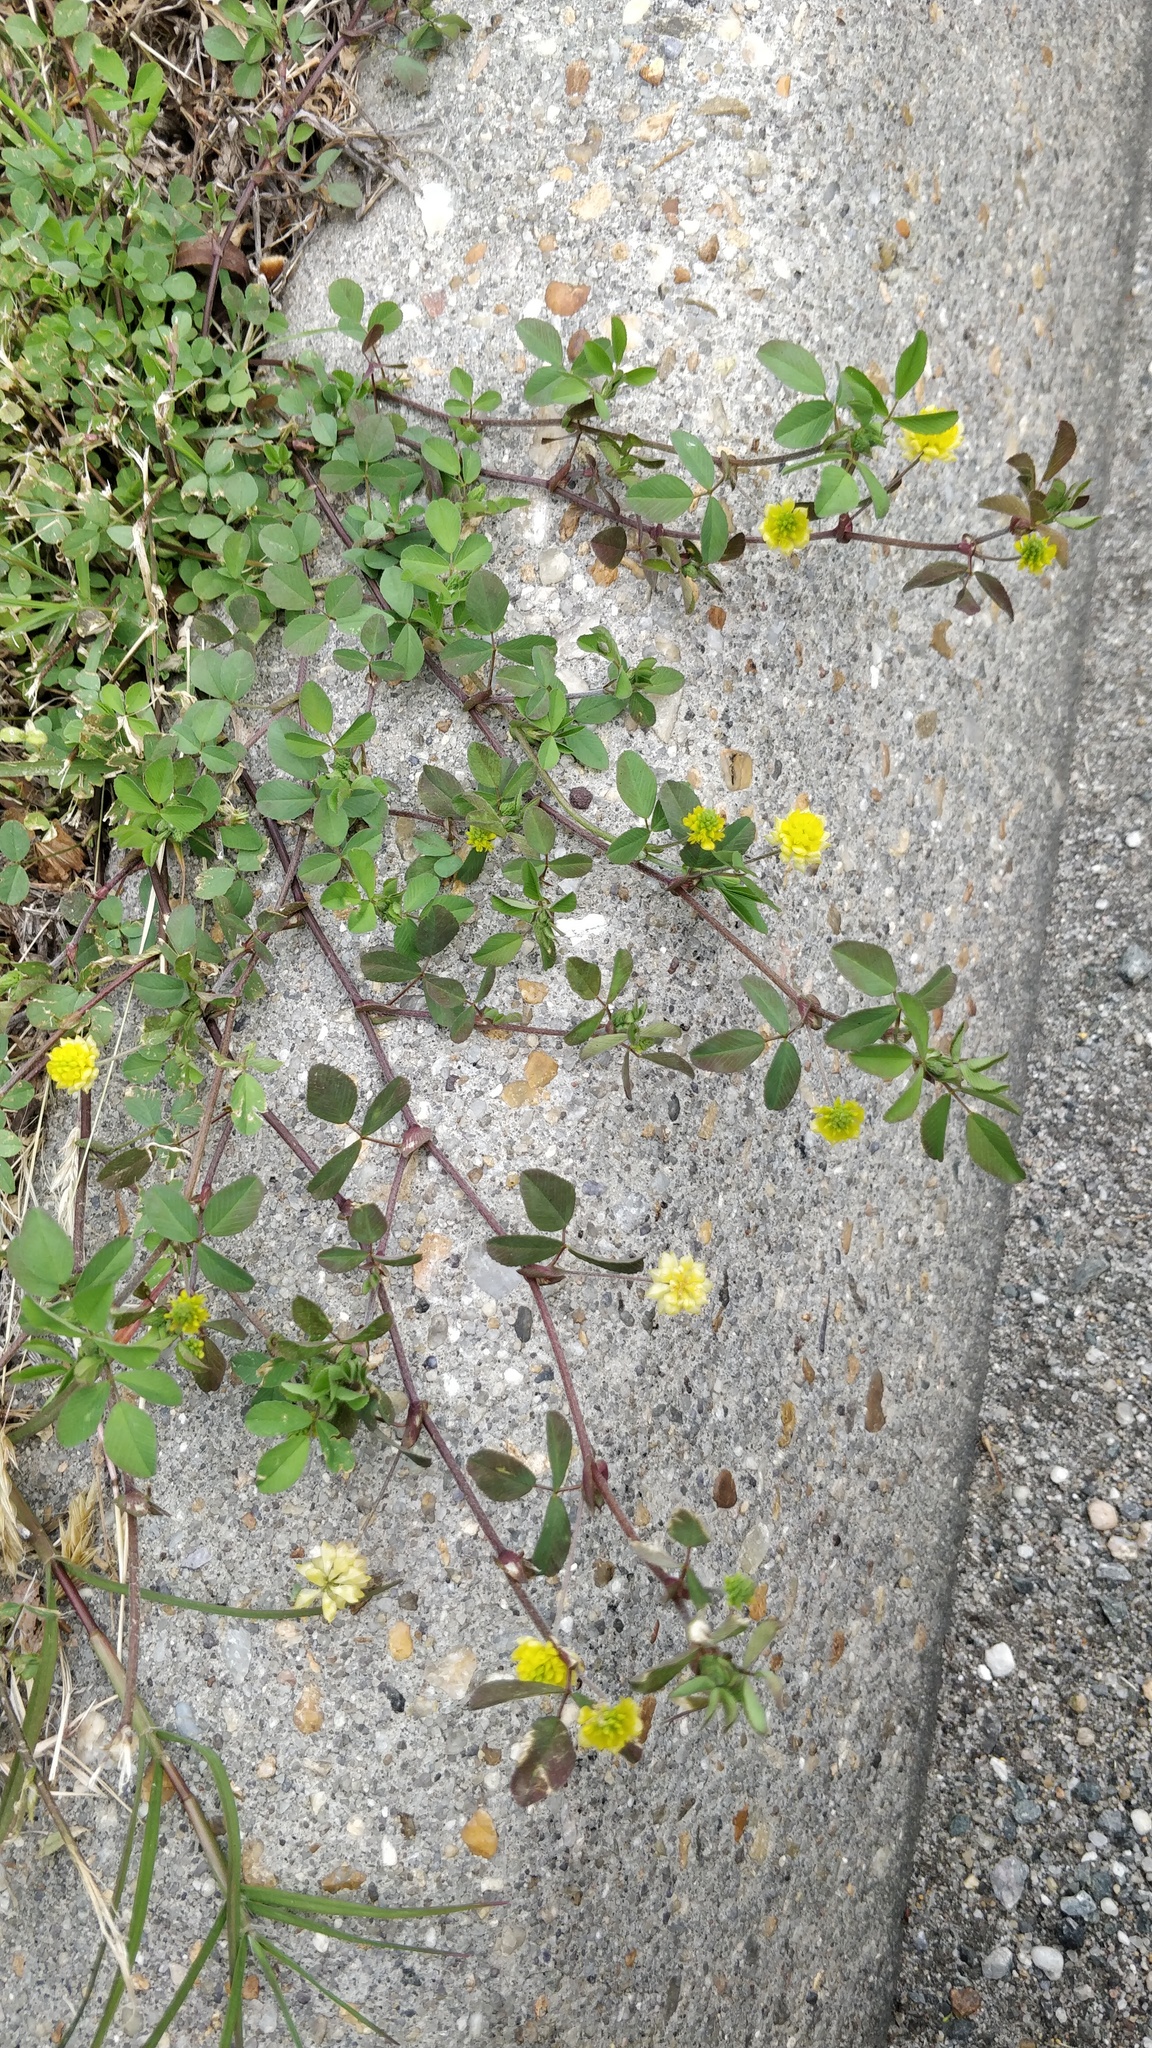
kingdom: Plantae
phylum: Tracheophyta
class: Magnoliopsida
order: Fabales
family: Fabaceae
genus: Trifolium
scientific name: Trifolium campestre
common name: Field clover
